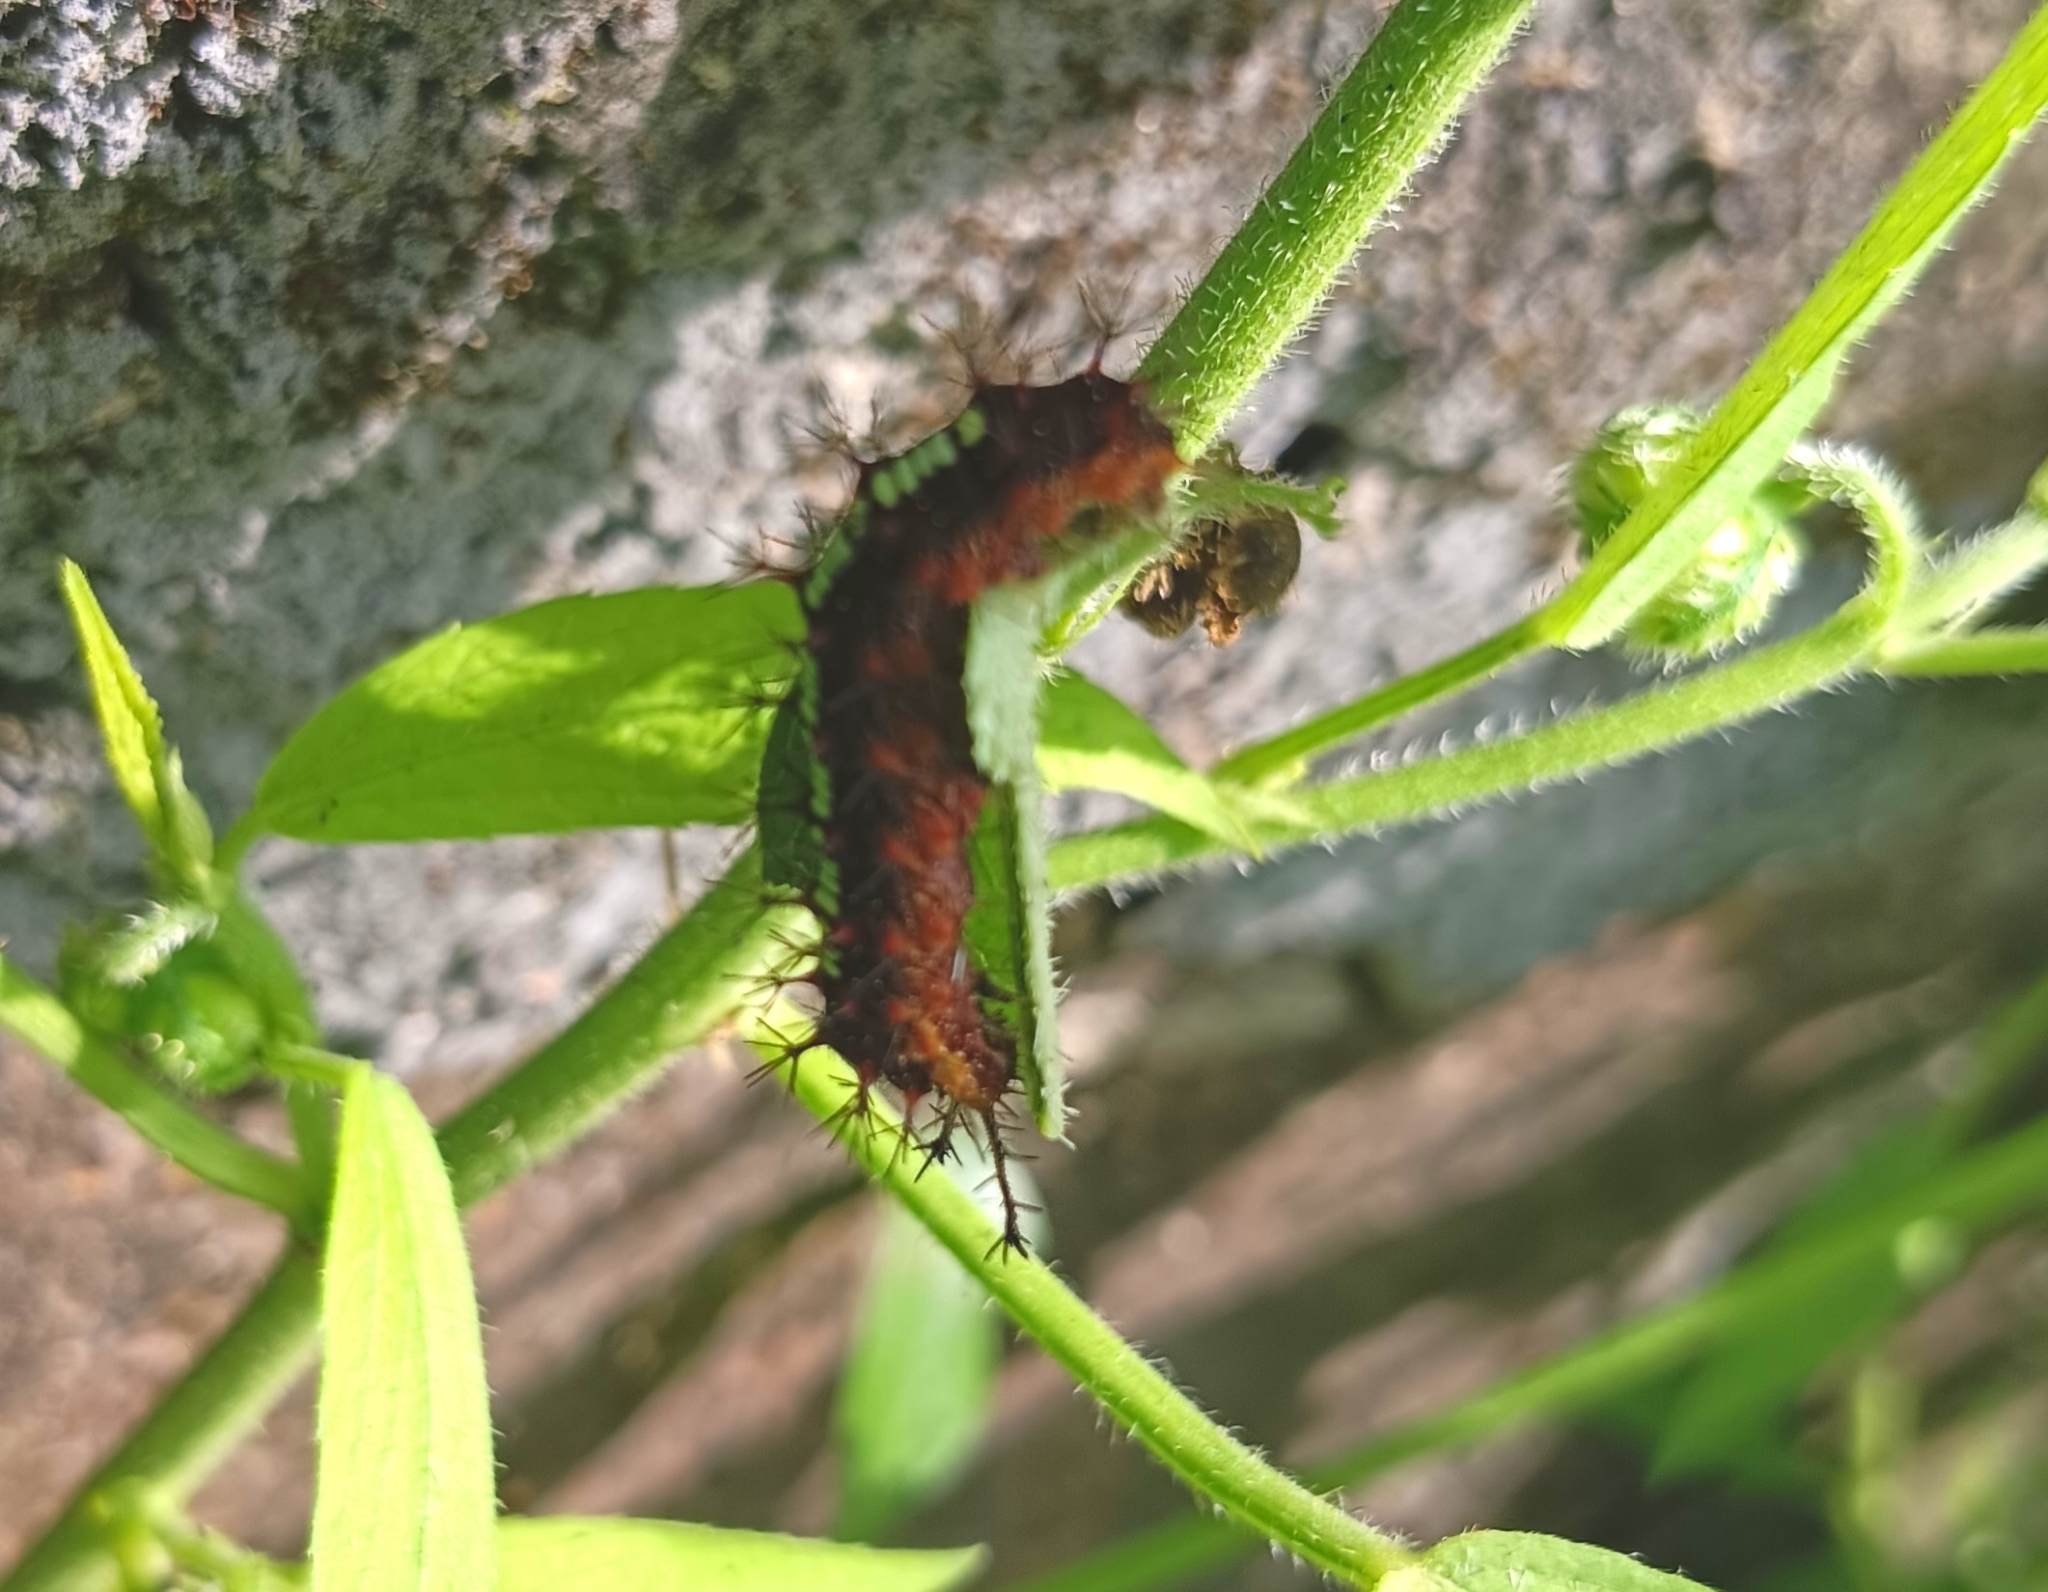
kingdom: Animalia
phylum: Arthropoda
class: Insecta
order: Lepidoptera
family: Nymphalidae
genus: Ariadne
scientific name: Ariadne ariadne
